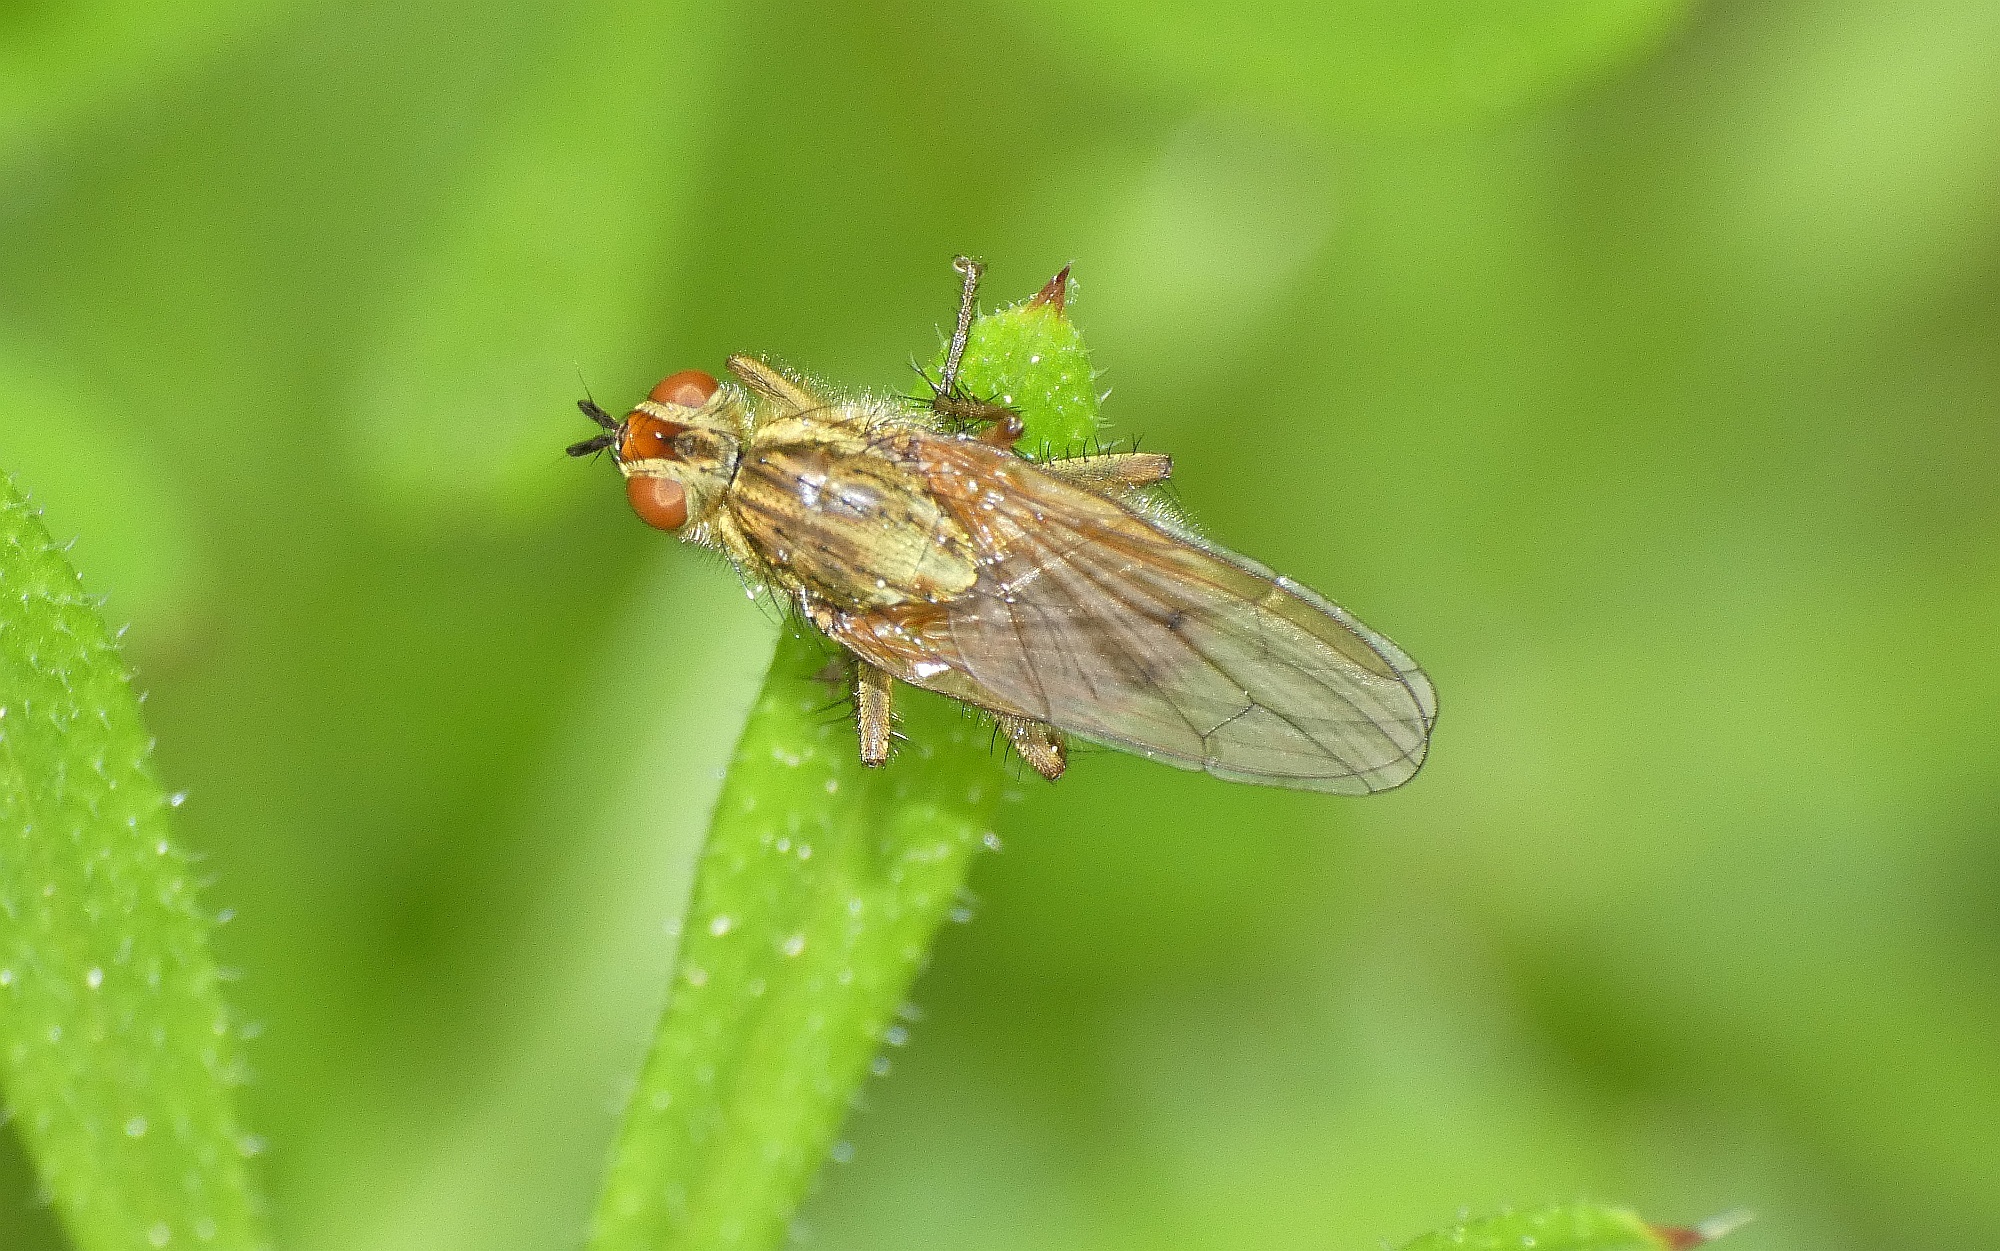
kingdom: Animalia
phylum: Arthropoda
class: Insecta
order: Diptera
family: Scathophagidae
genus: Scathophaga
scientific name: Scathophaga stercoraria
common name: Yellow dung fly
